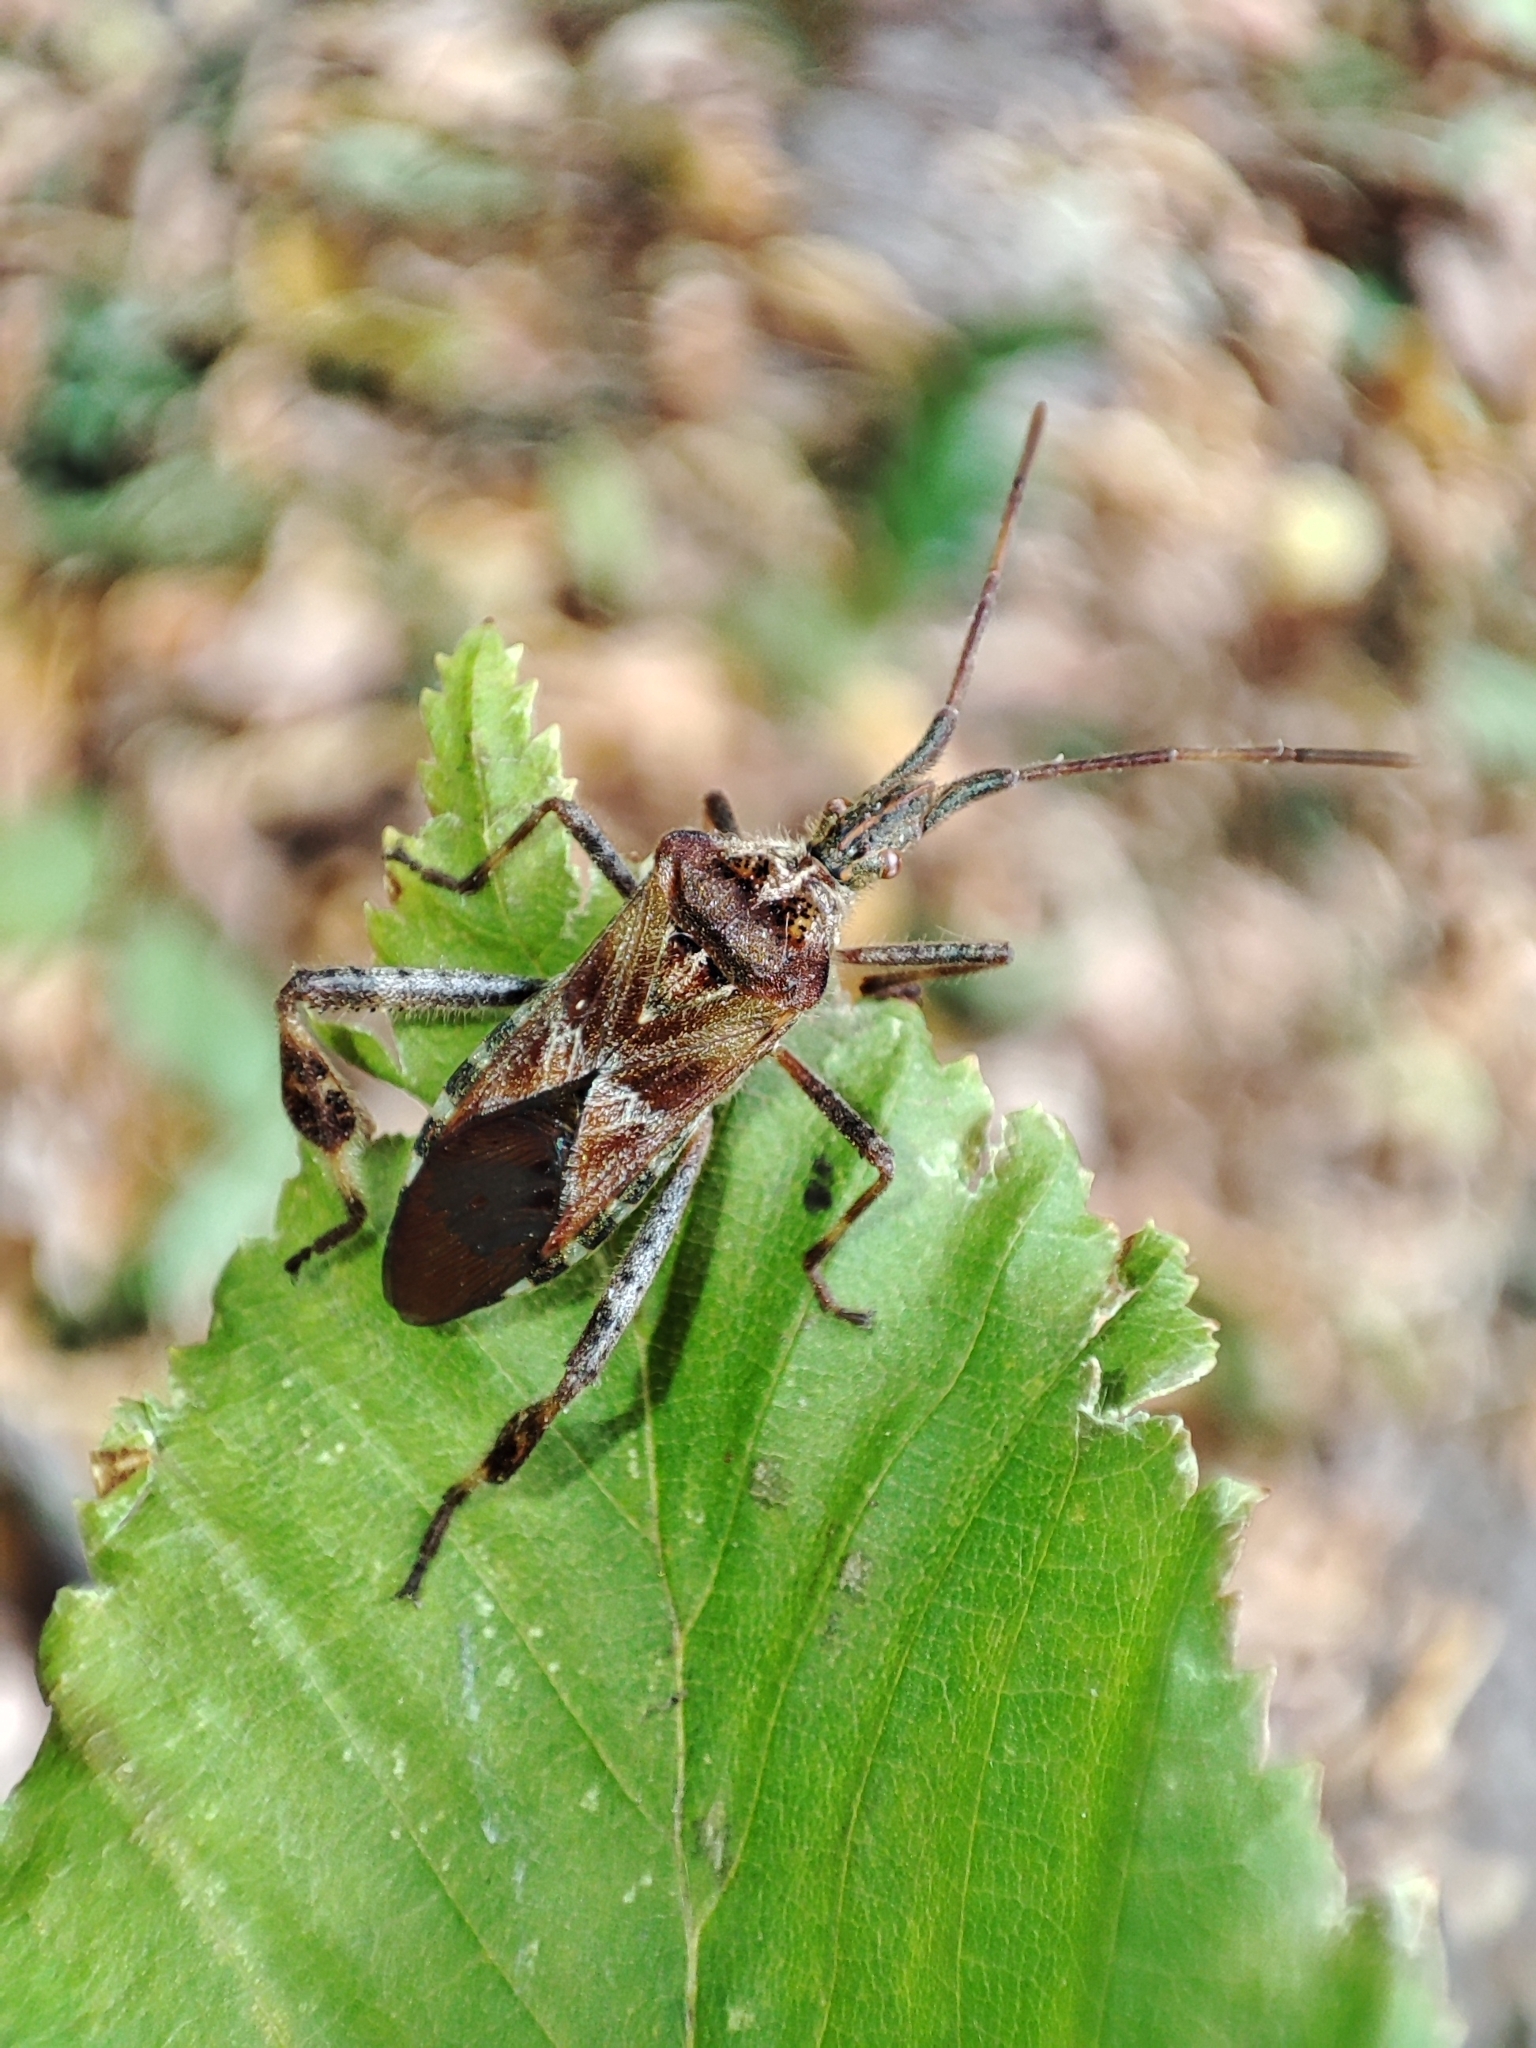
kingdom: Animalia
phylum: Arthropoda
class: Insecta
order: Hemiptera
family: Coreidae
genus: Leptoglossus
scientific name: Leptoglossus occidentalis
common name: Western conifer-seed bug
